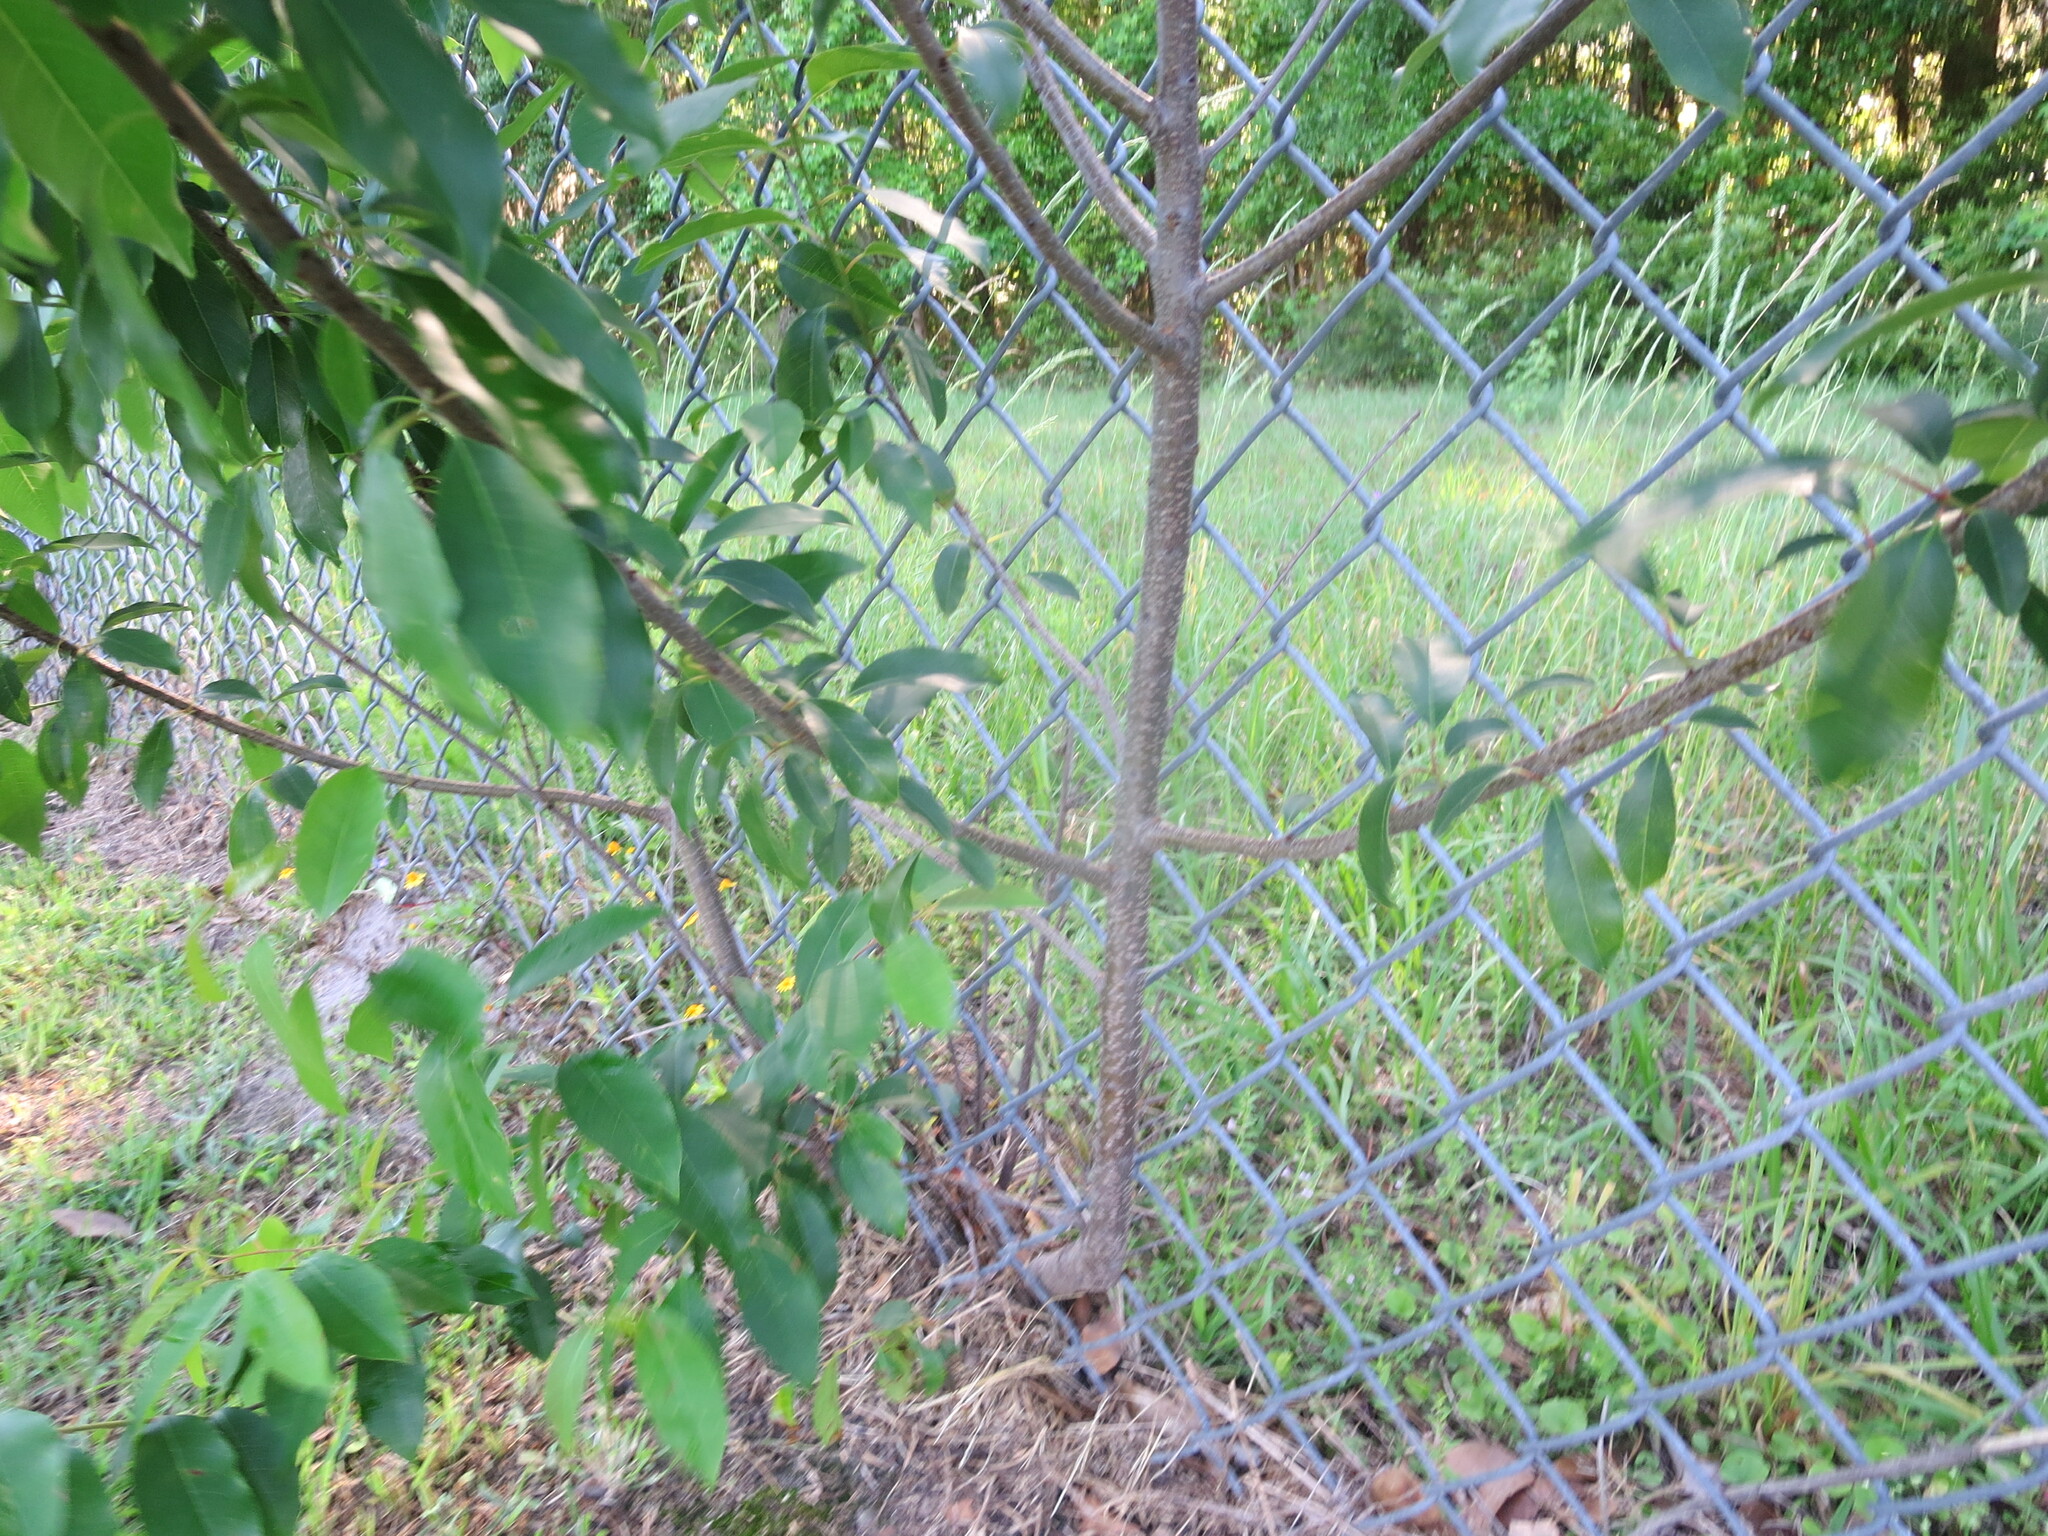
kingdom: Plantae
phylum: Tracheophyta
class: Magnoliopsida
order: Rosales
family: Rosaceae
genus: Prunus
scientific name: Prunus serotina
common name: Black cherry
